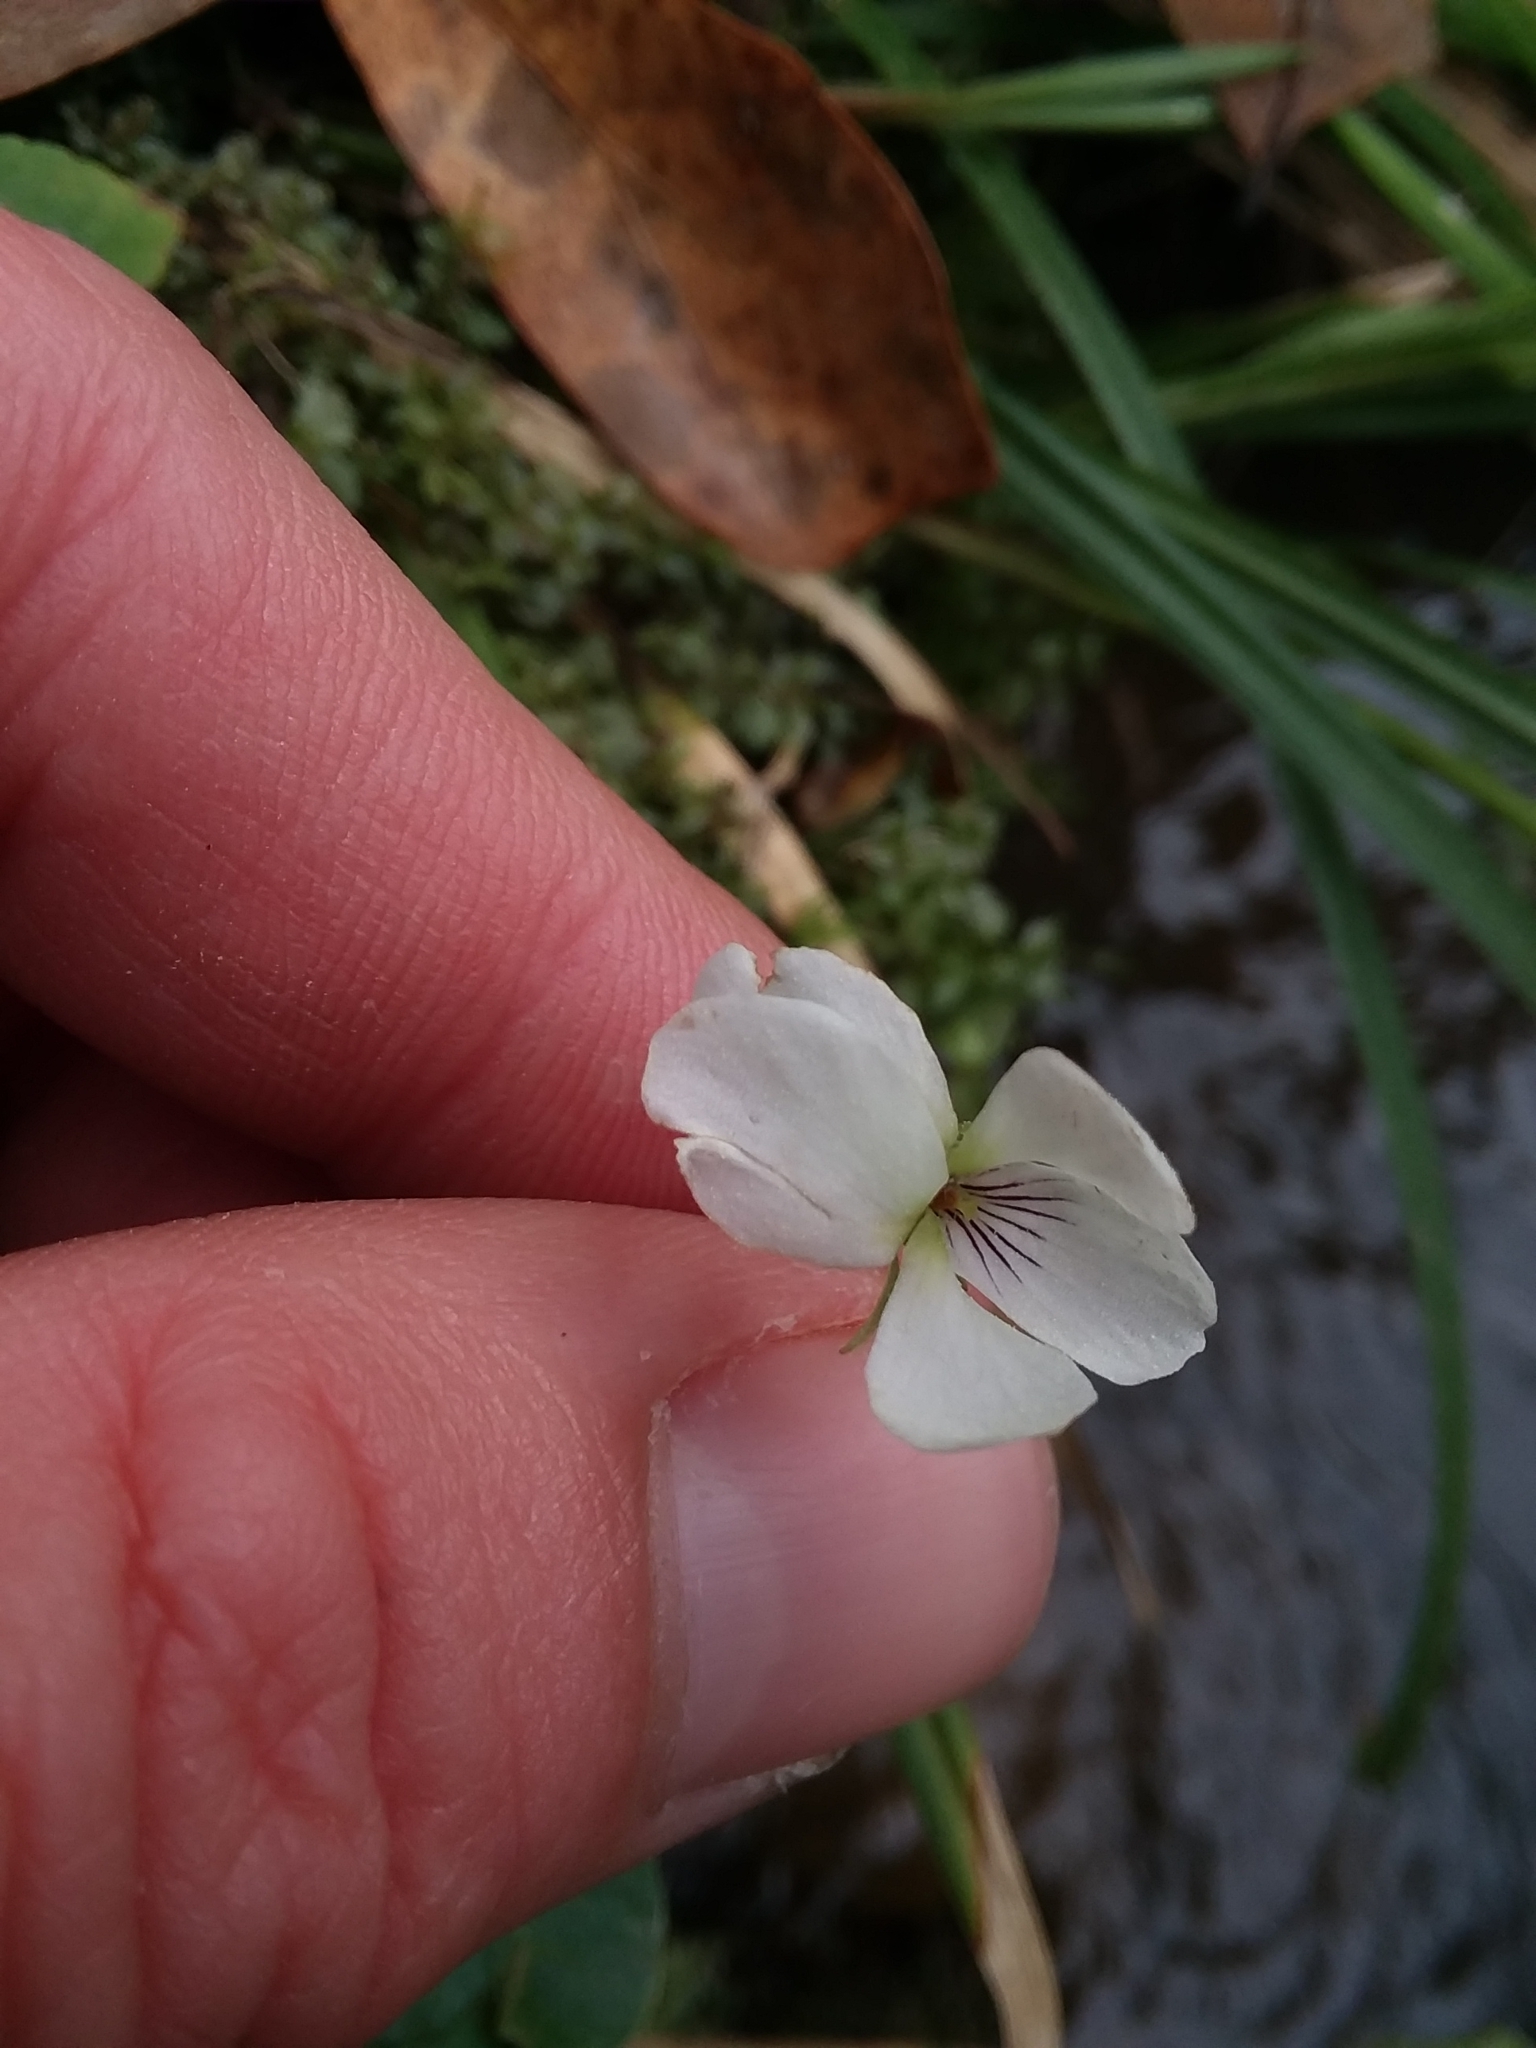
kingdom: Plantae
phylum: Tracheophyta
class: Magnoliopsida
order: Malpighiales
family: Violaceae
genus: Viola
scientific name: Viola primulifolia
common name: Primrose-leaf violet
